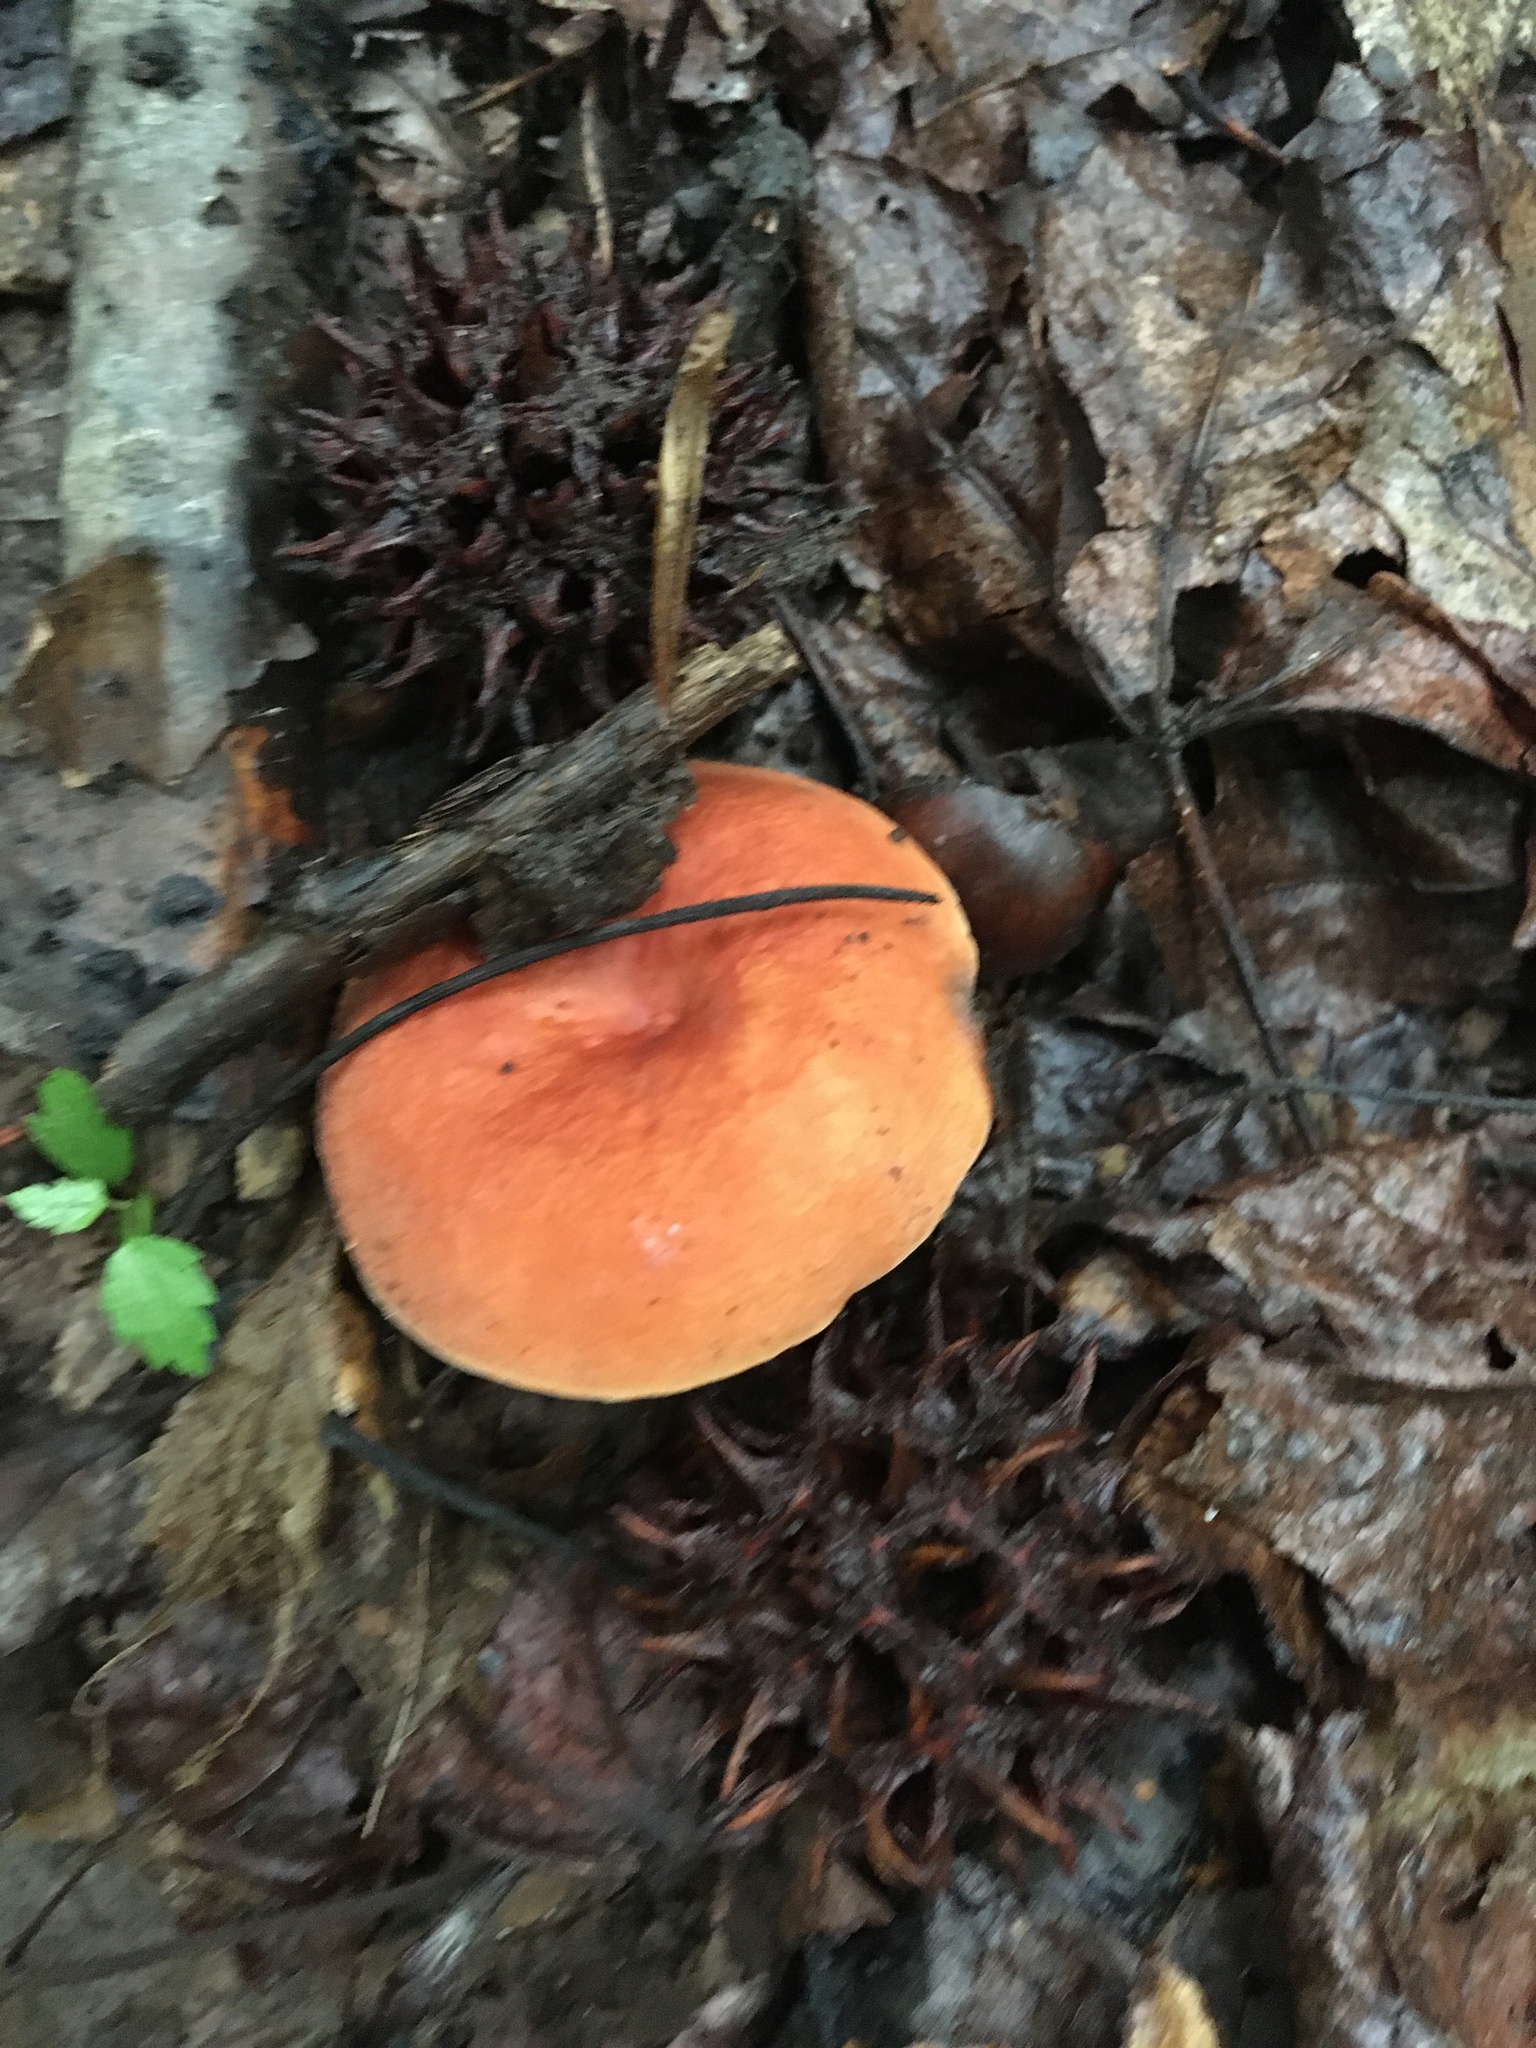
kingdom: Fungi
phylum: Basidiomycota
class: Agaricomycetes
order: Russulales
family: Russulaceae
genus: Lactarius
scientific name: Lactarius hygrophoroides
